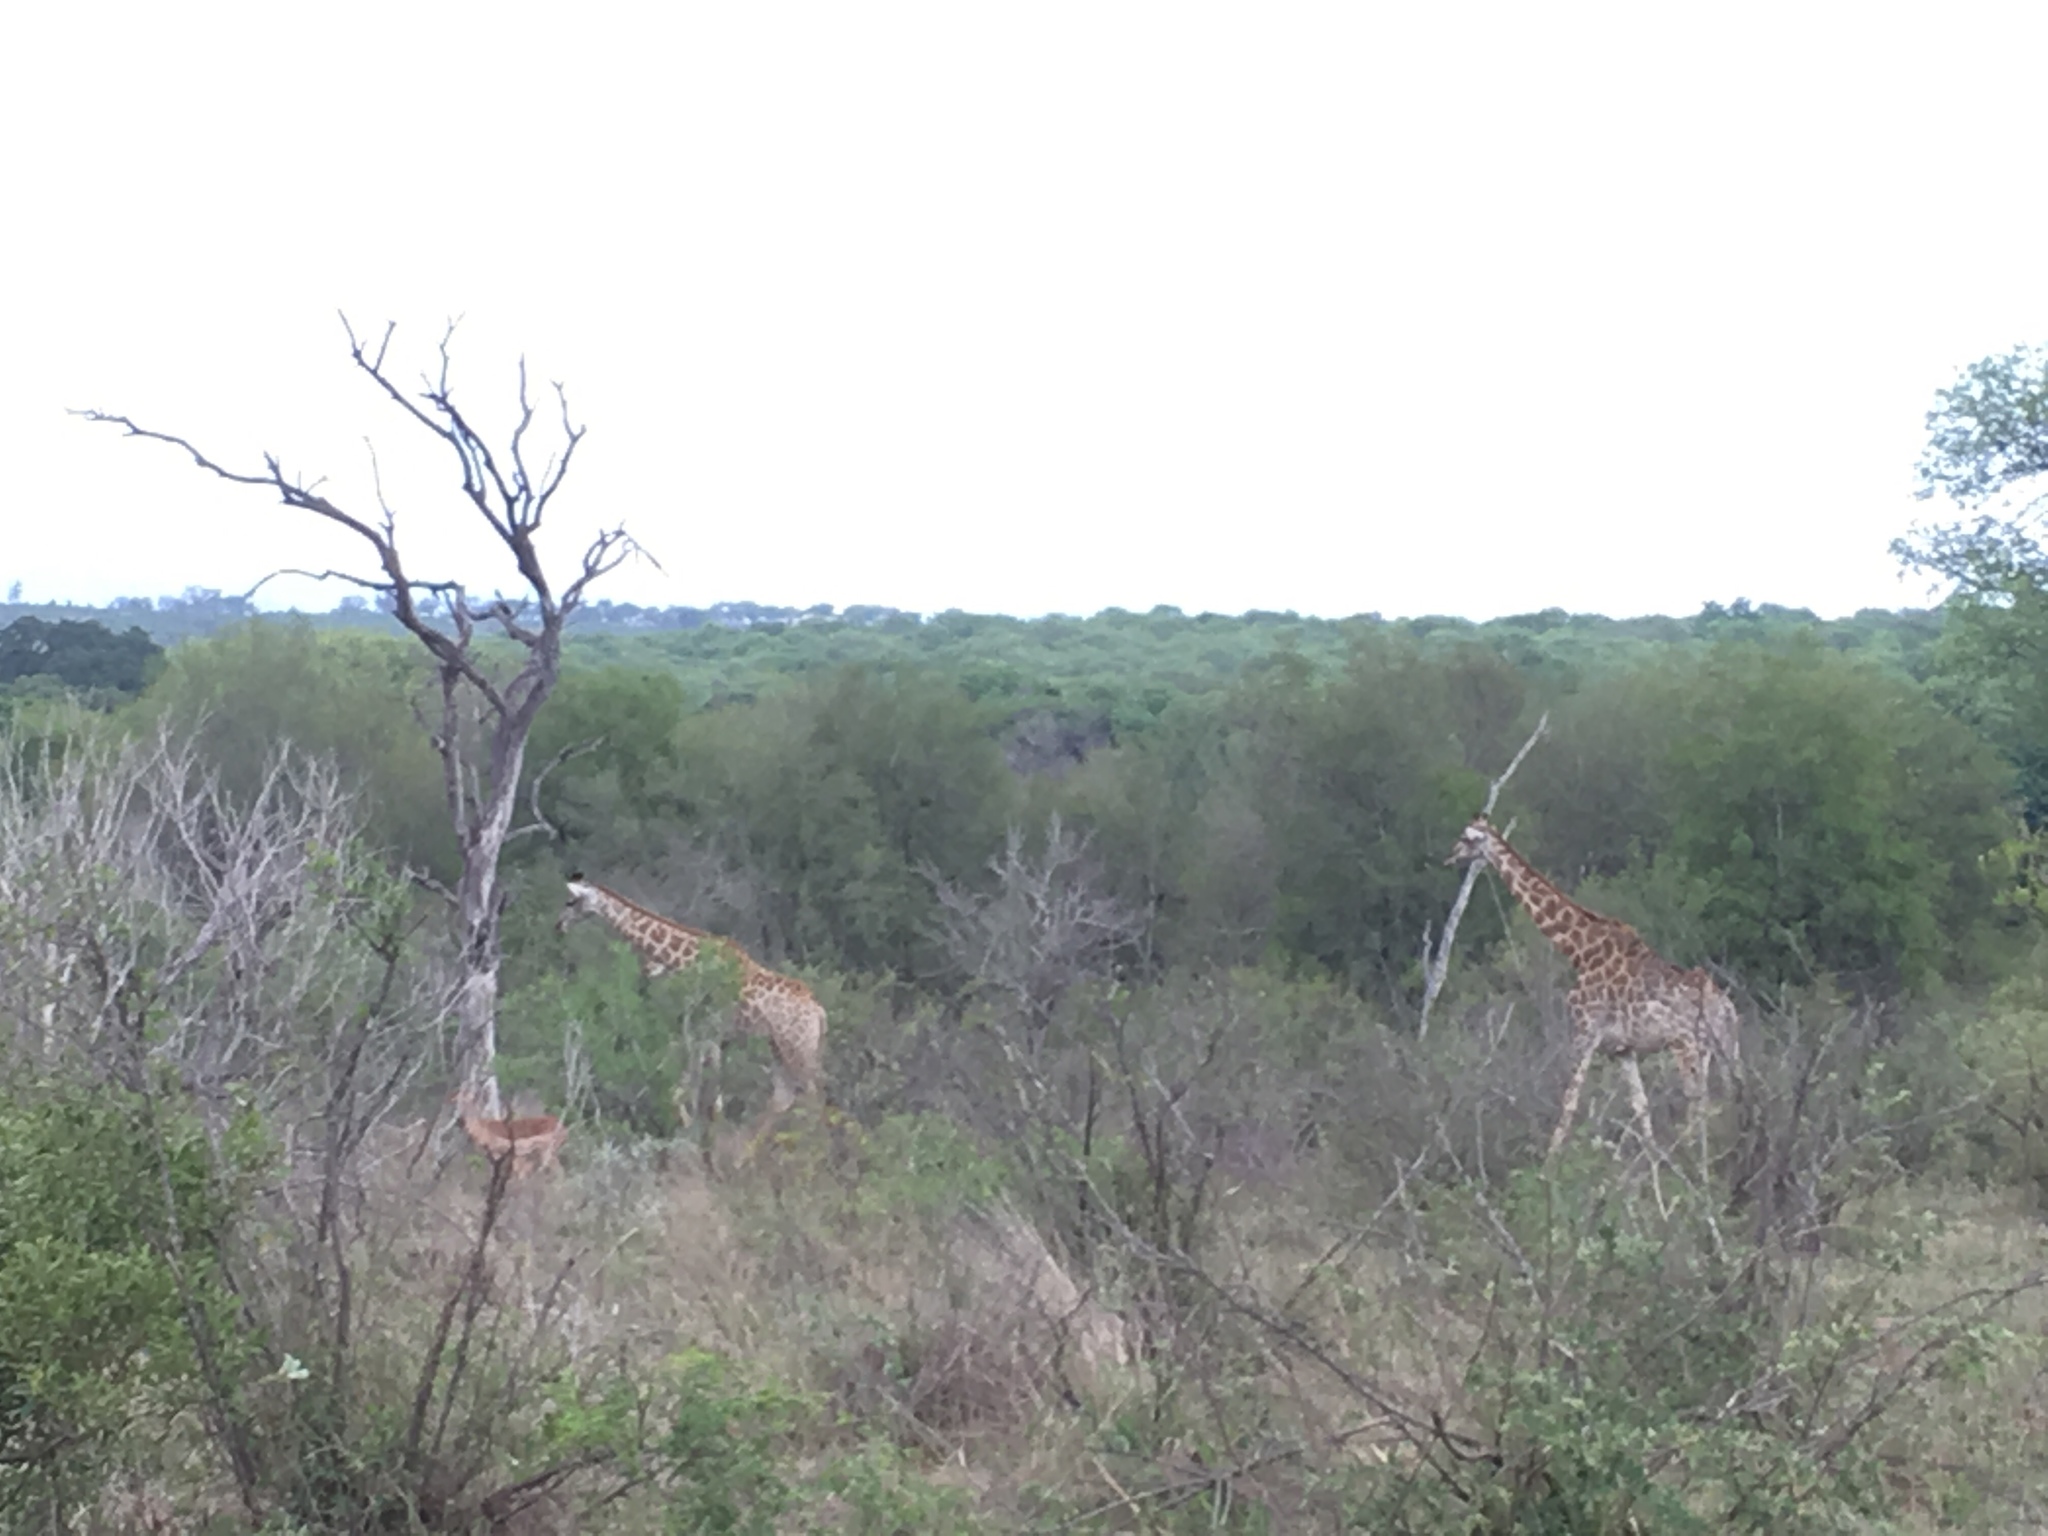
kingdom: Animalia
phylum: Chordata
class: Mammalia
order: Artiodactyla
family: Giraffidae
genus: Giraffa
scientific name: Giraffa giraffa
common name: Southern giraffe
